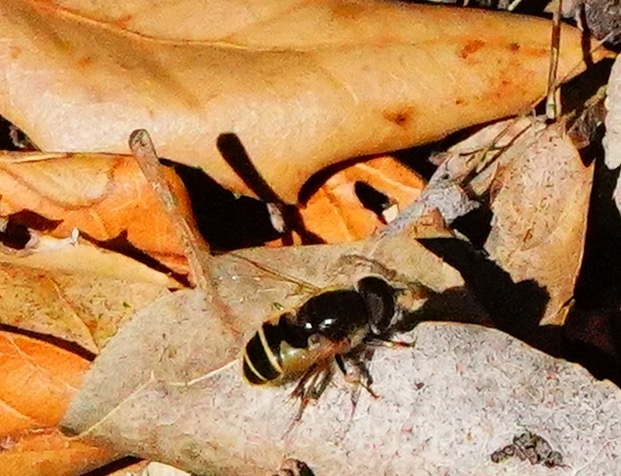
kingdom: Animalia
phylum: Arthropoda
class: Insecta
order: Diptera
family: Syrphidae
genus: Eristalis
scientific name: Eristalis hirta
